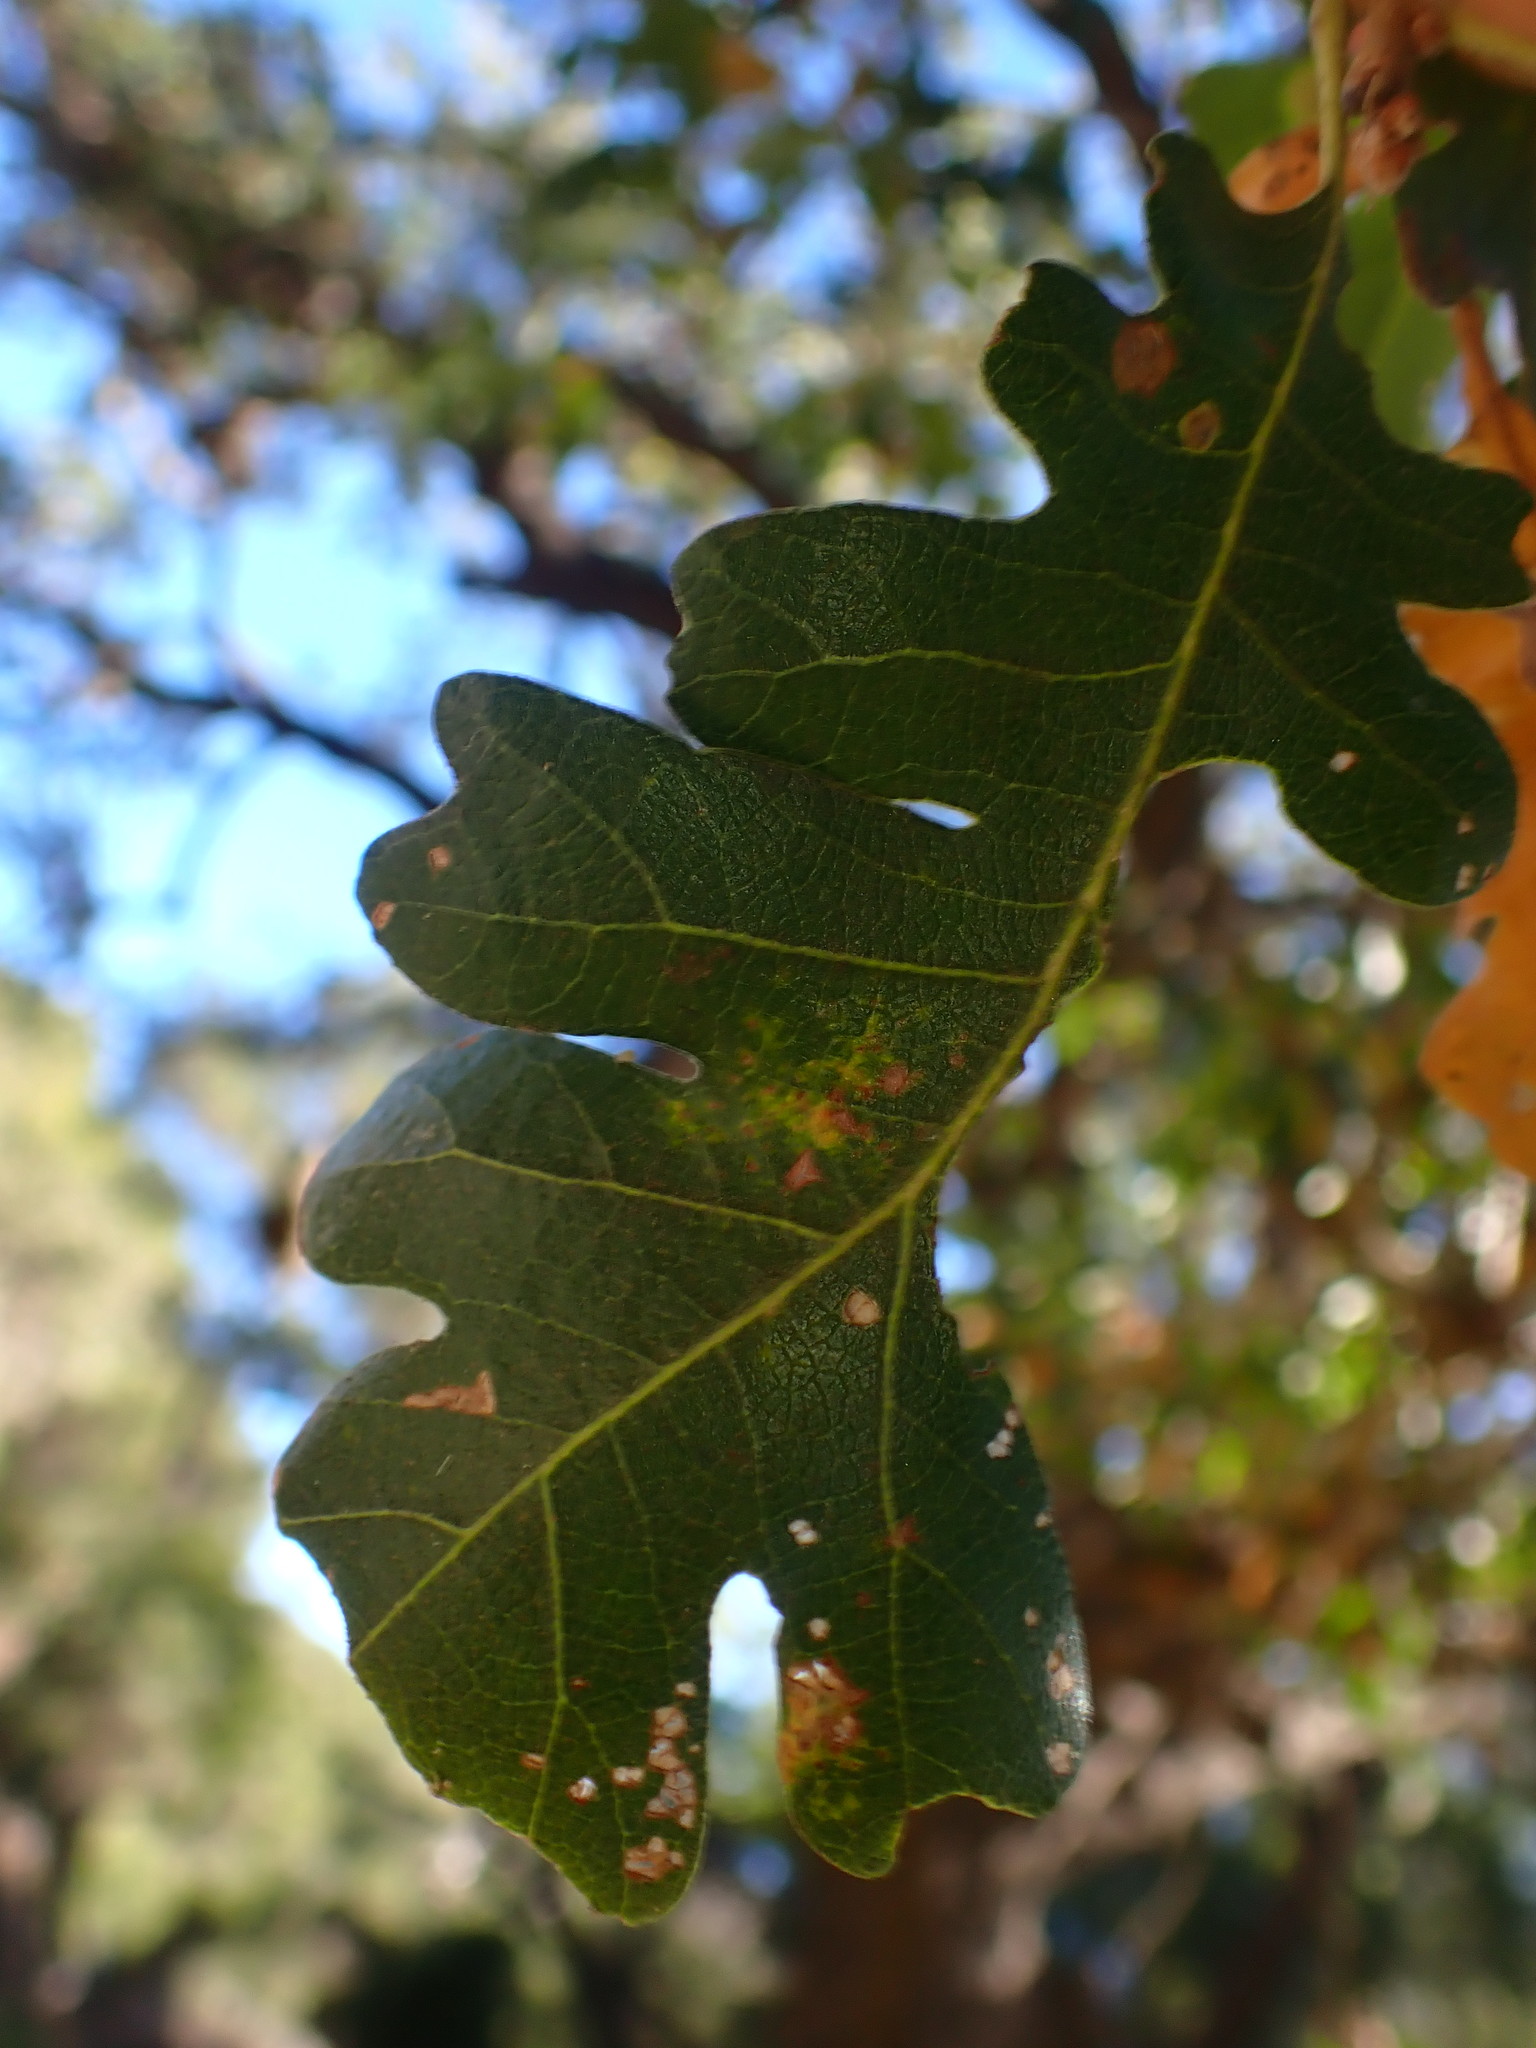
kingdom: Plantae
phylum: Tracheophyta
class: Magnoliopsida
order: Fagales
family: Fagaceae
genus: Quercus
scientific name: Quercus lobata
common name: Valley oak
